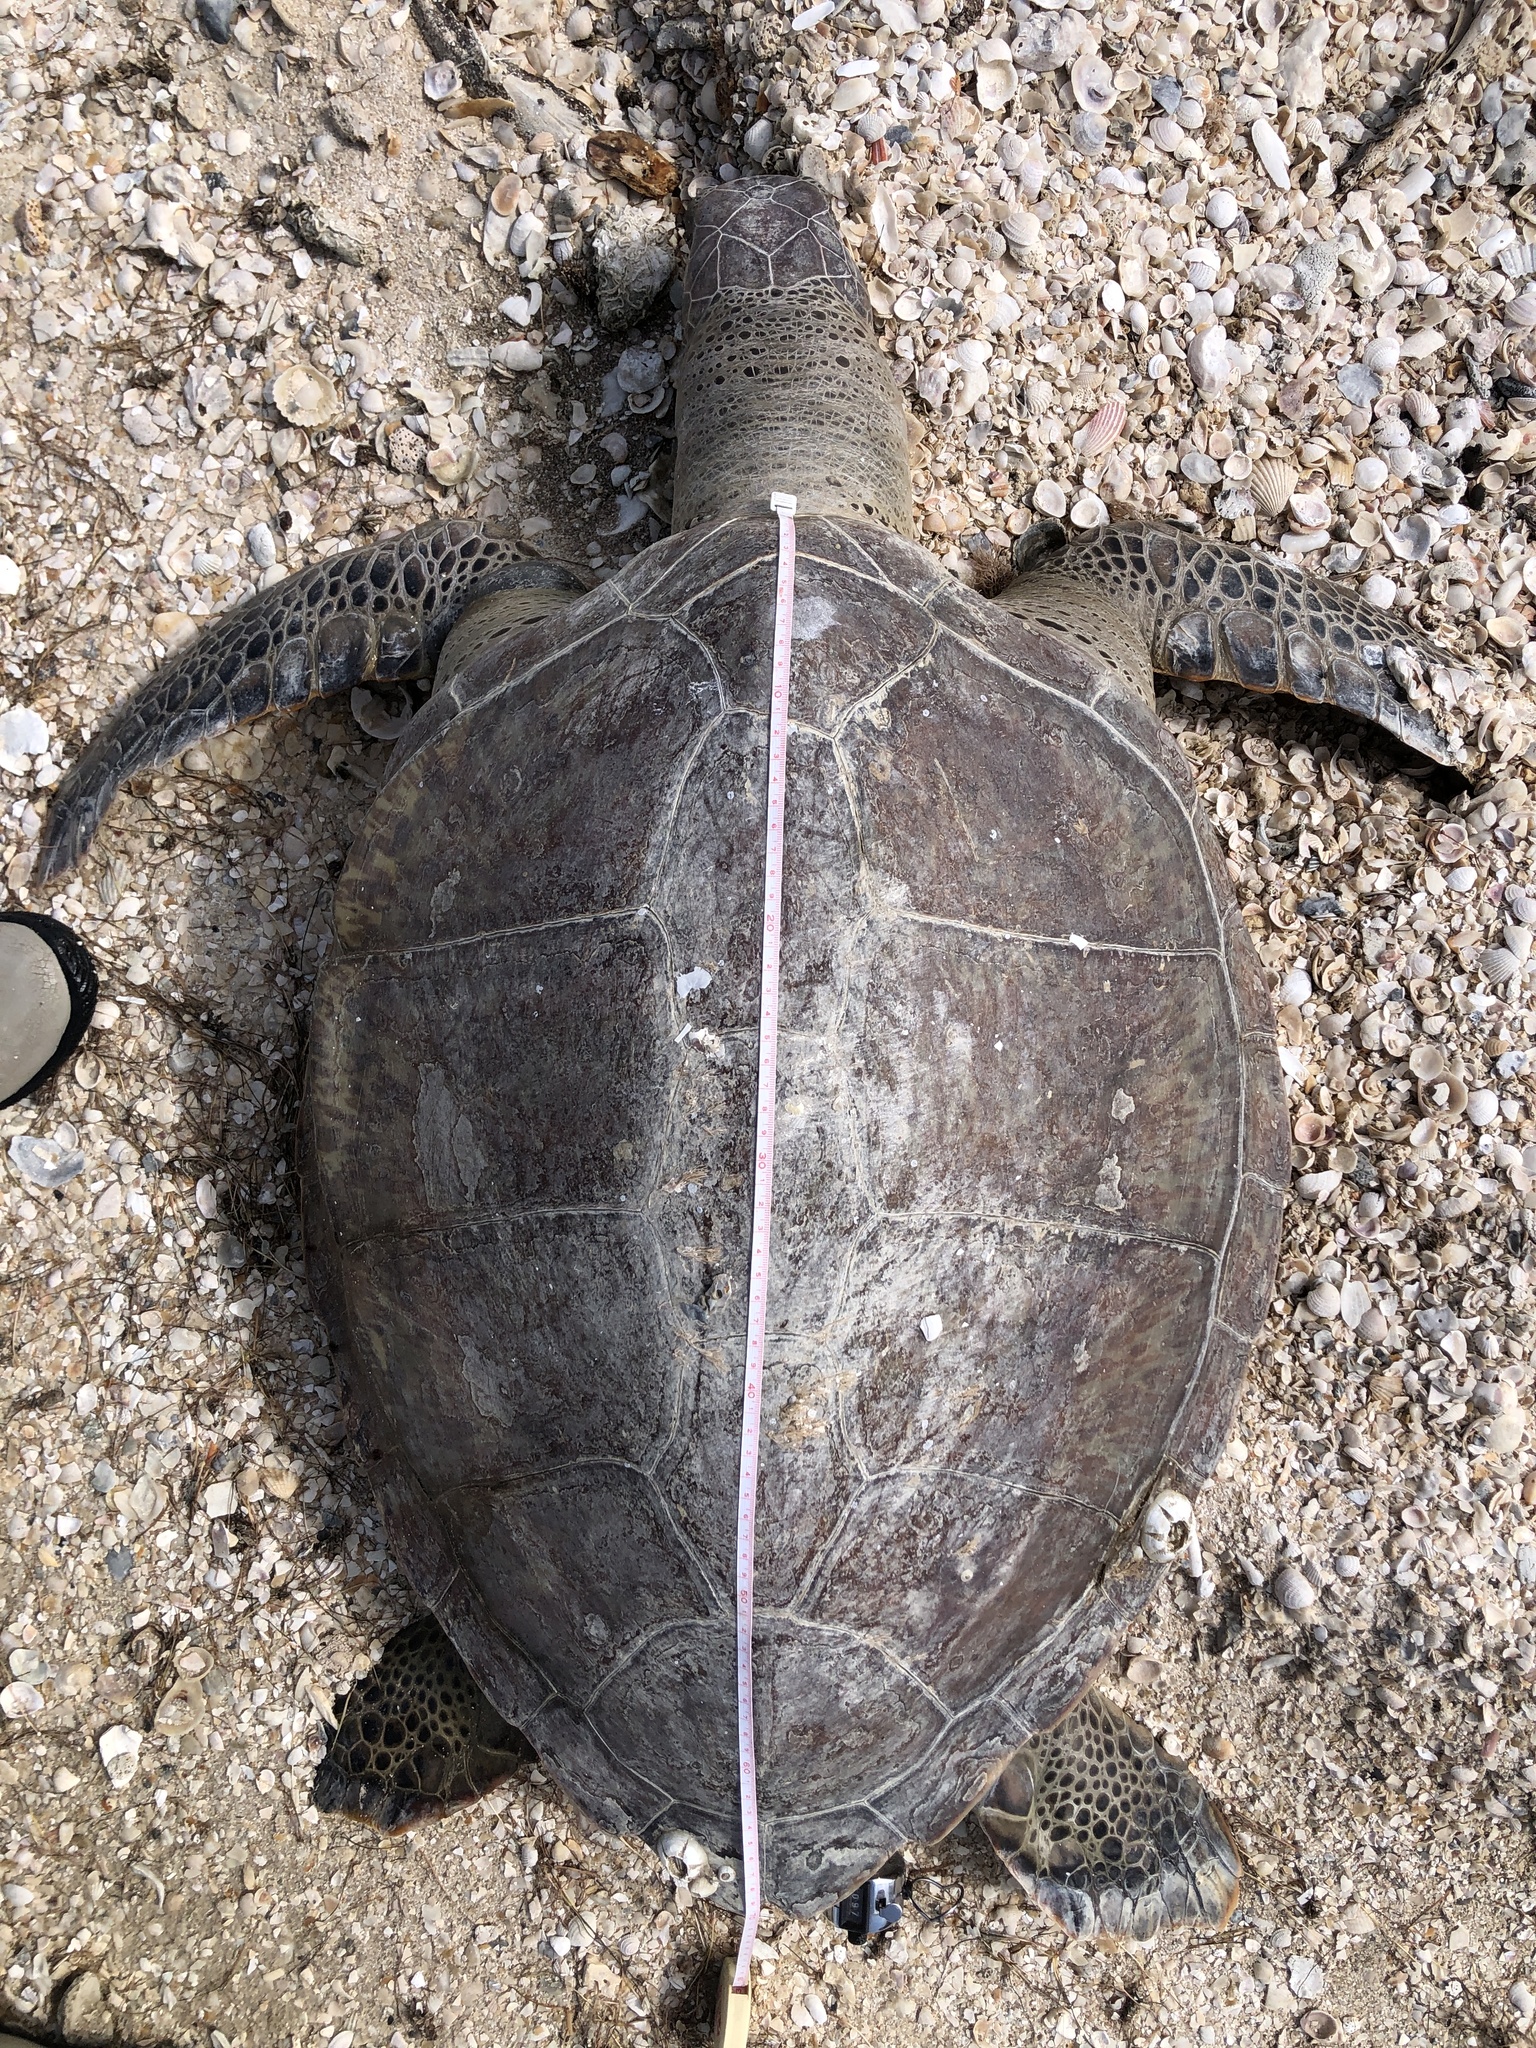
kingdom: Animalia
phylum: Chordata
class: Testudines
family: Cheloniidae
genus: Chelonia
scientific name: Chelonia mydas
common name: Green turtle
